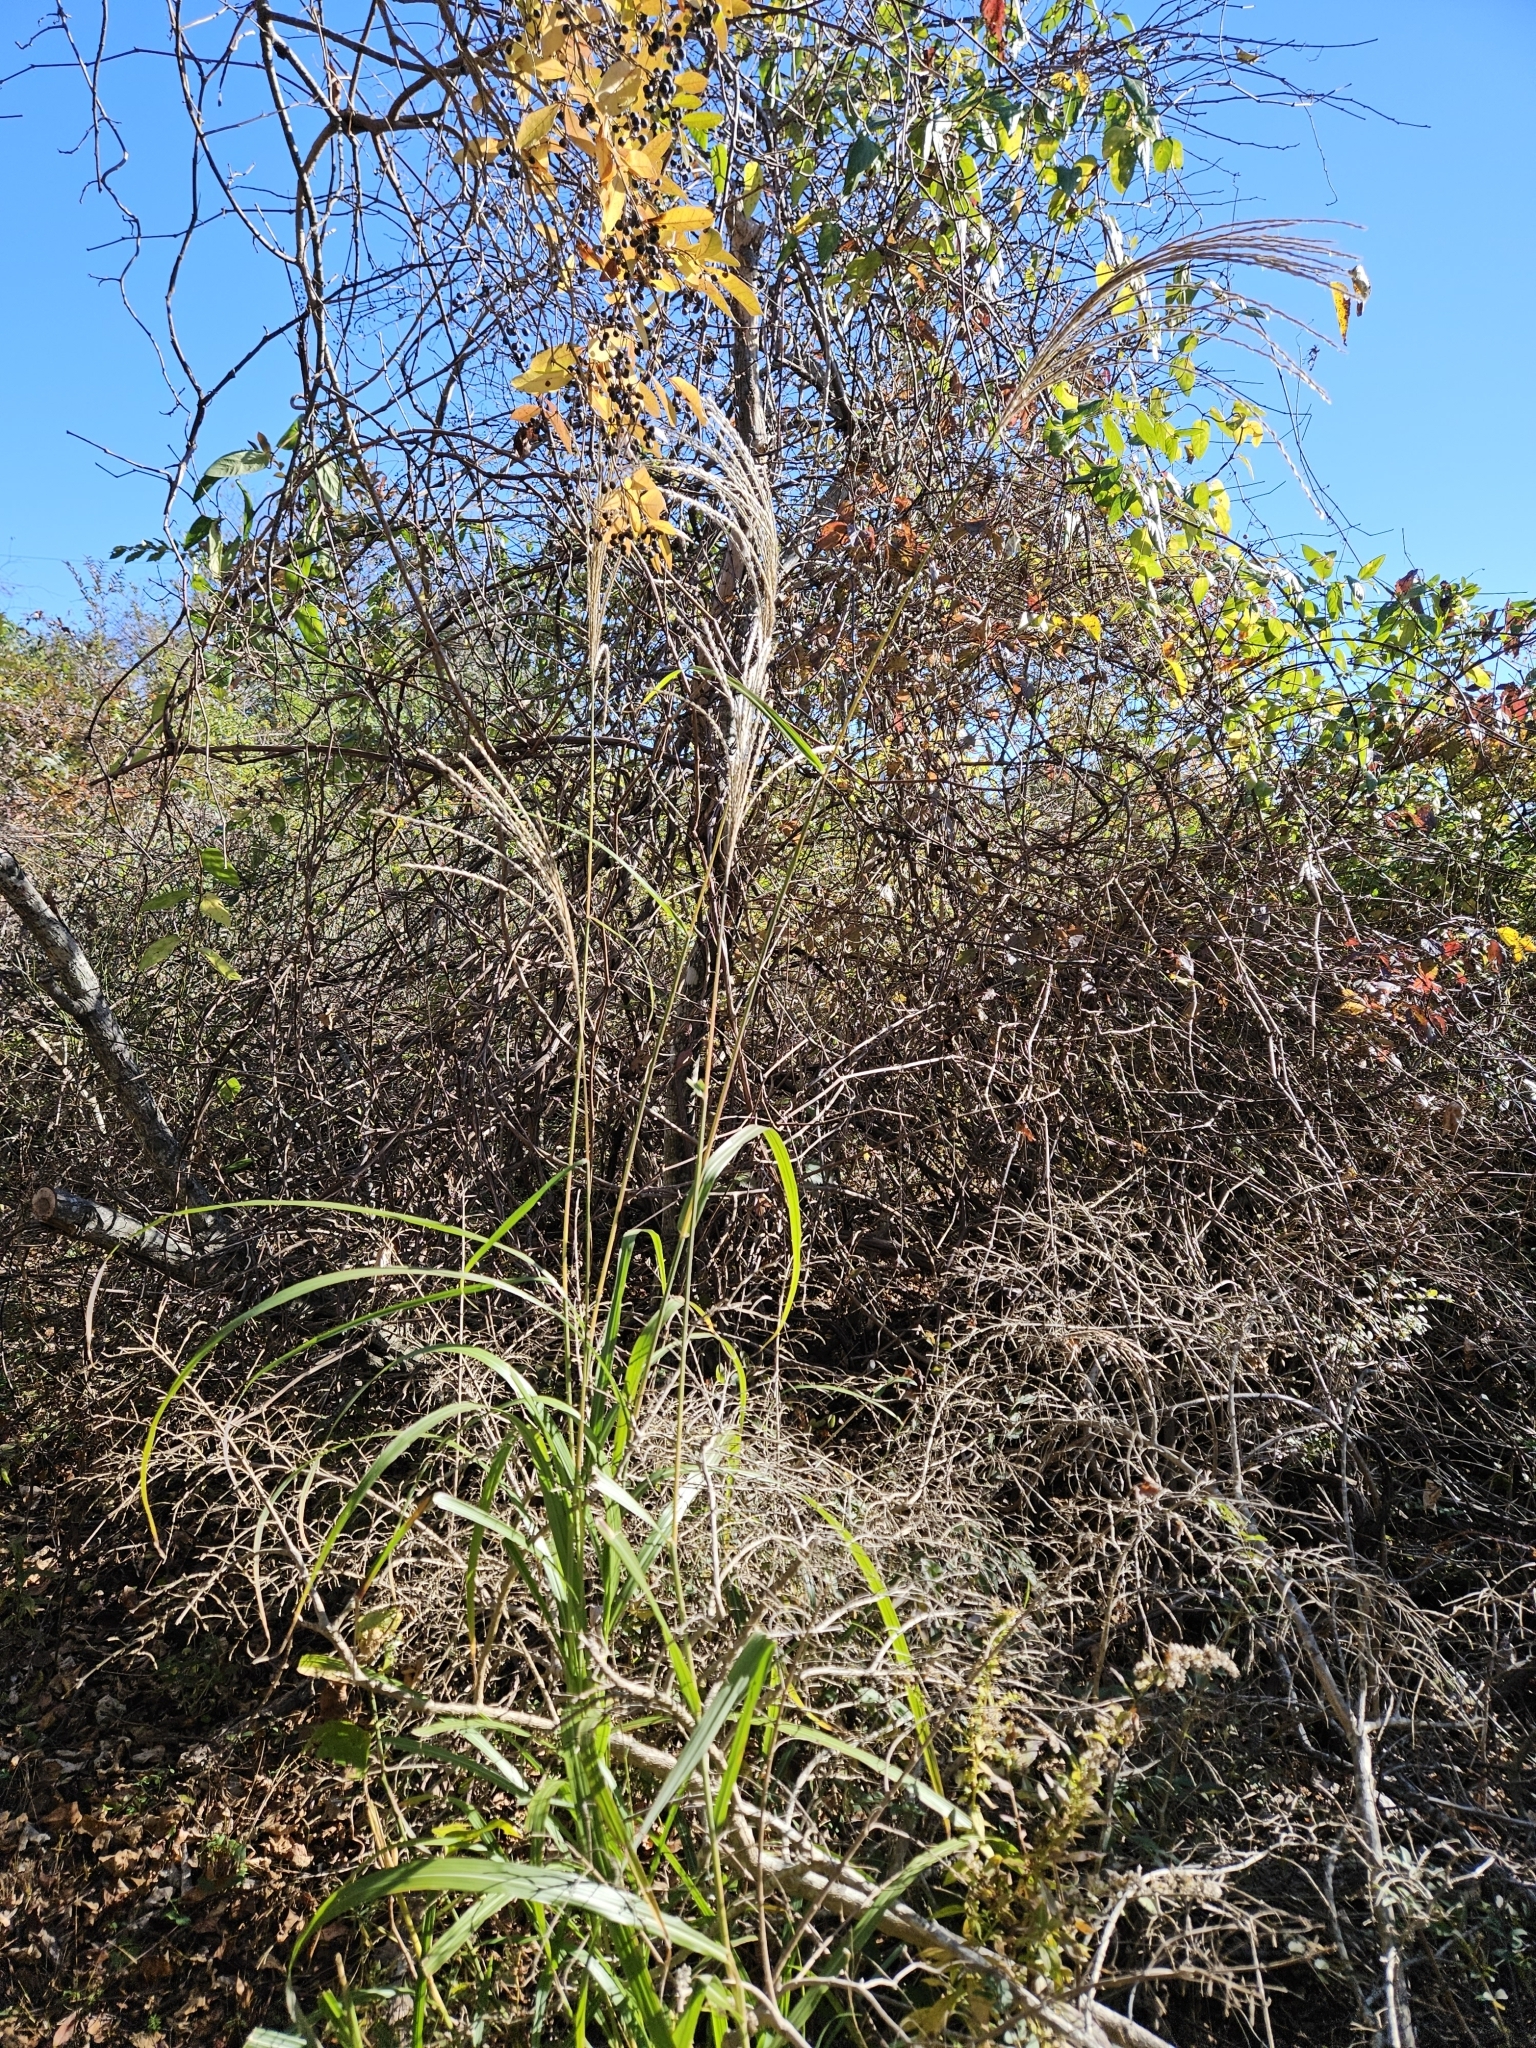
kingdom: Plantae
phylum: Tracheophyta
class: Liliopsida
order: Poales
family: Poaceae
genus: Miscanthus
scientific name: Miscanthus sinensis
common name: Chinese silvergrass
